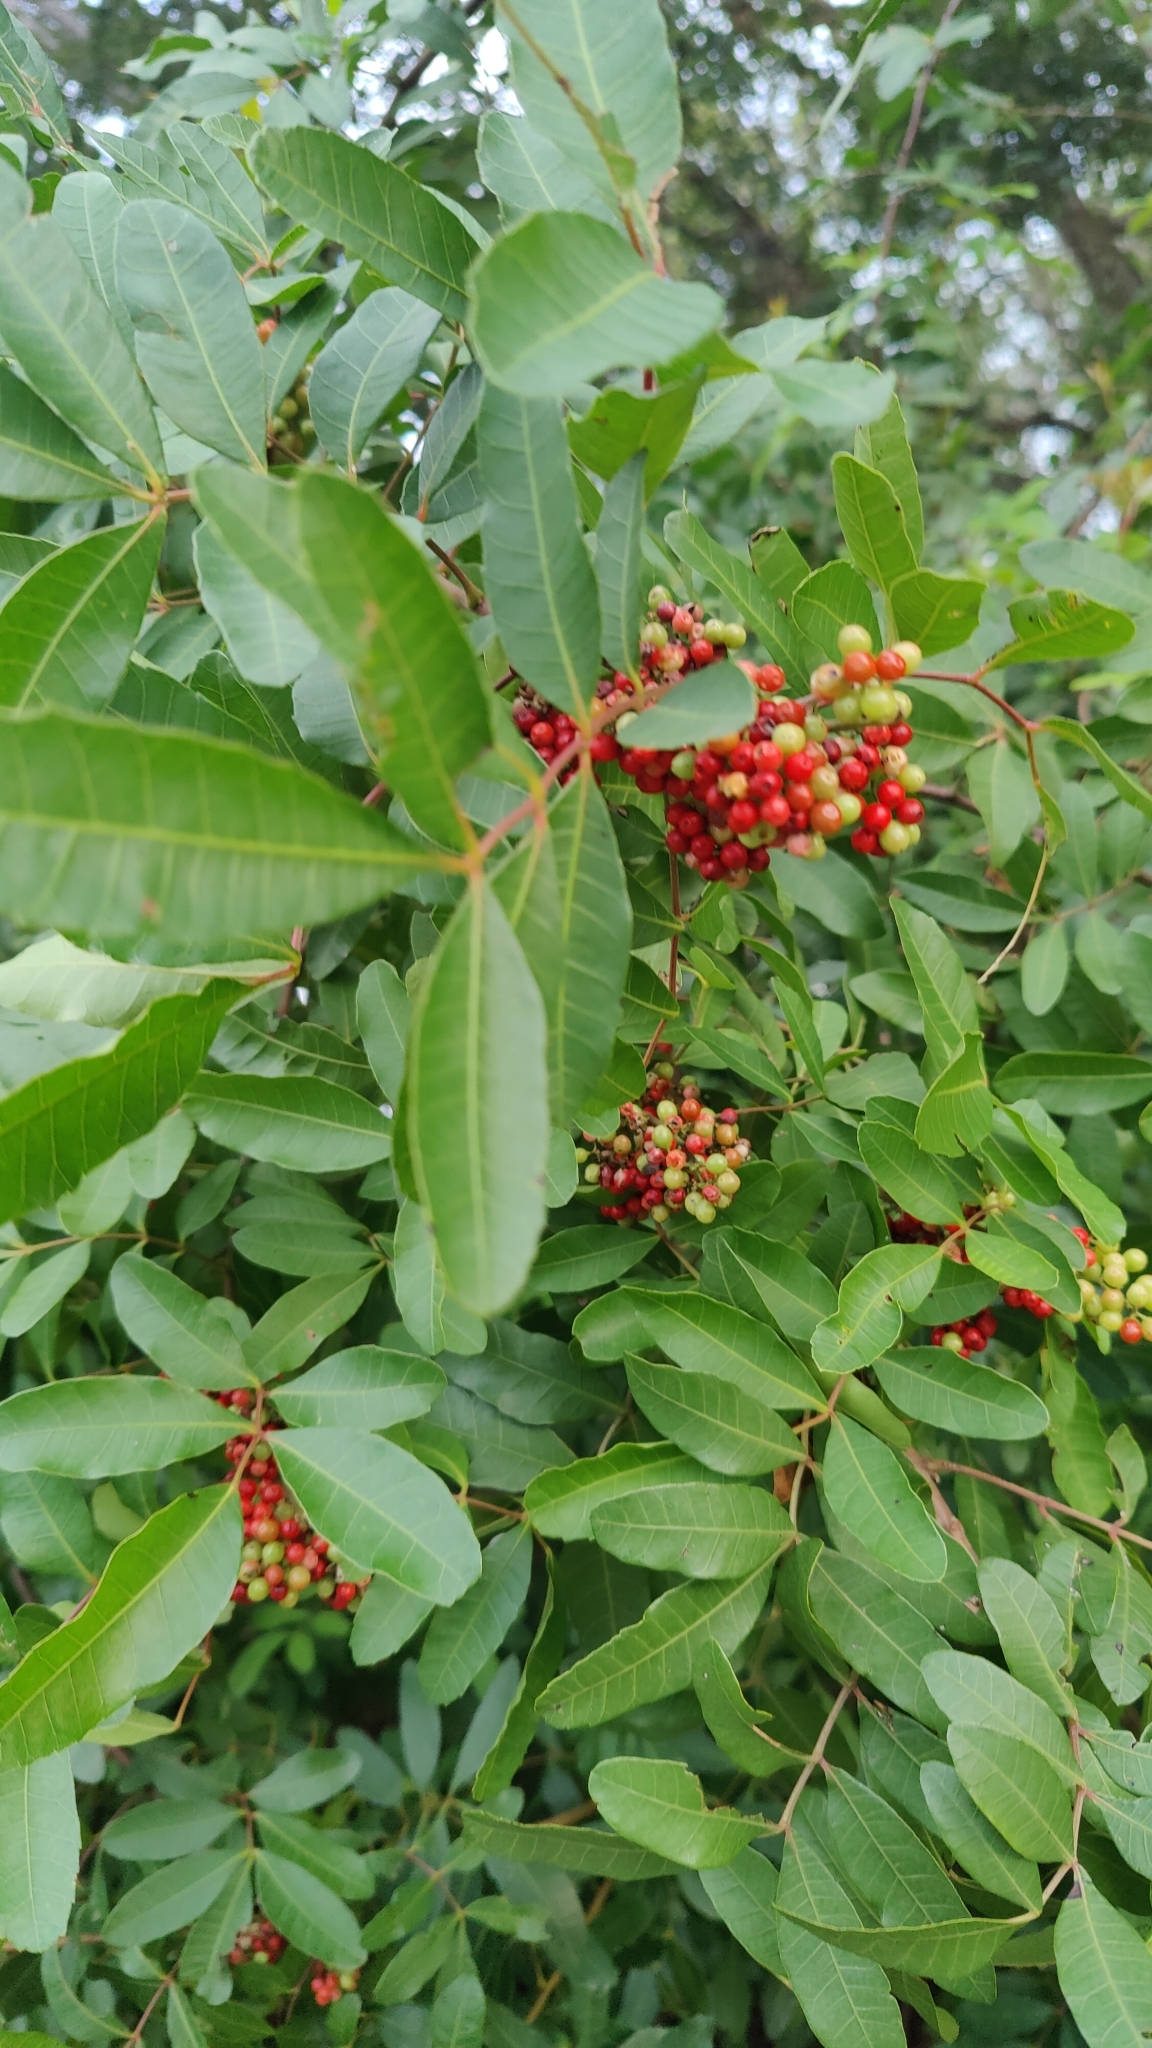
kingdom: Plantae
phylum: Tracheophyta
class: Magnoliopsida
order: Sapindales
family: Anacardiaceae
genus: Schinus
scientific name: Schinus terebinthifolia
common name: Brazilian peppertree
